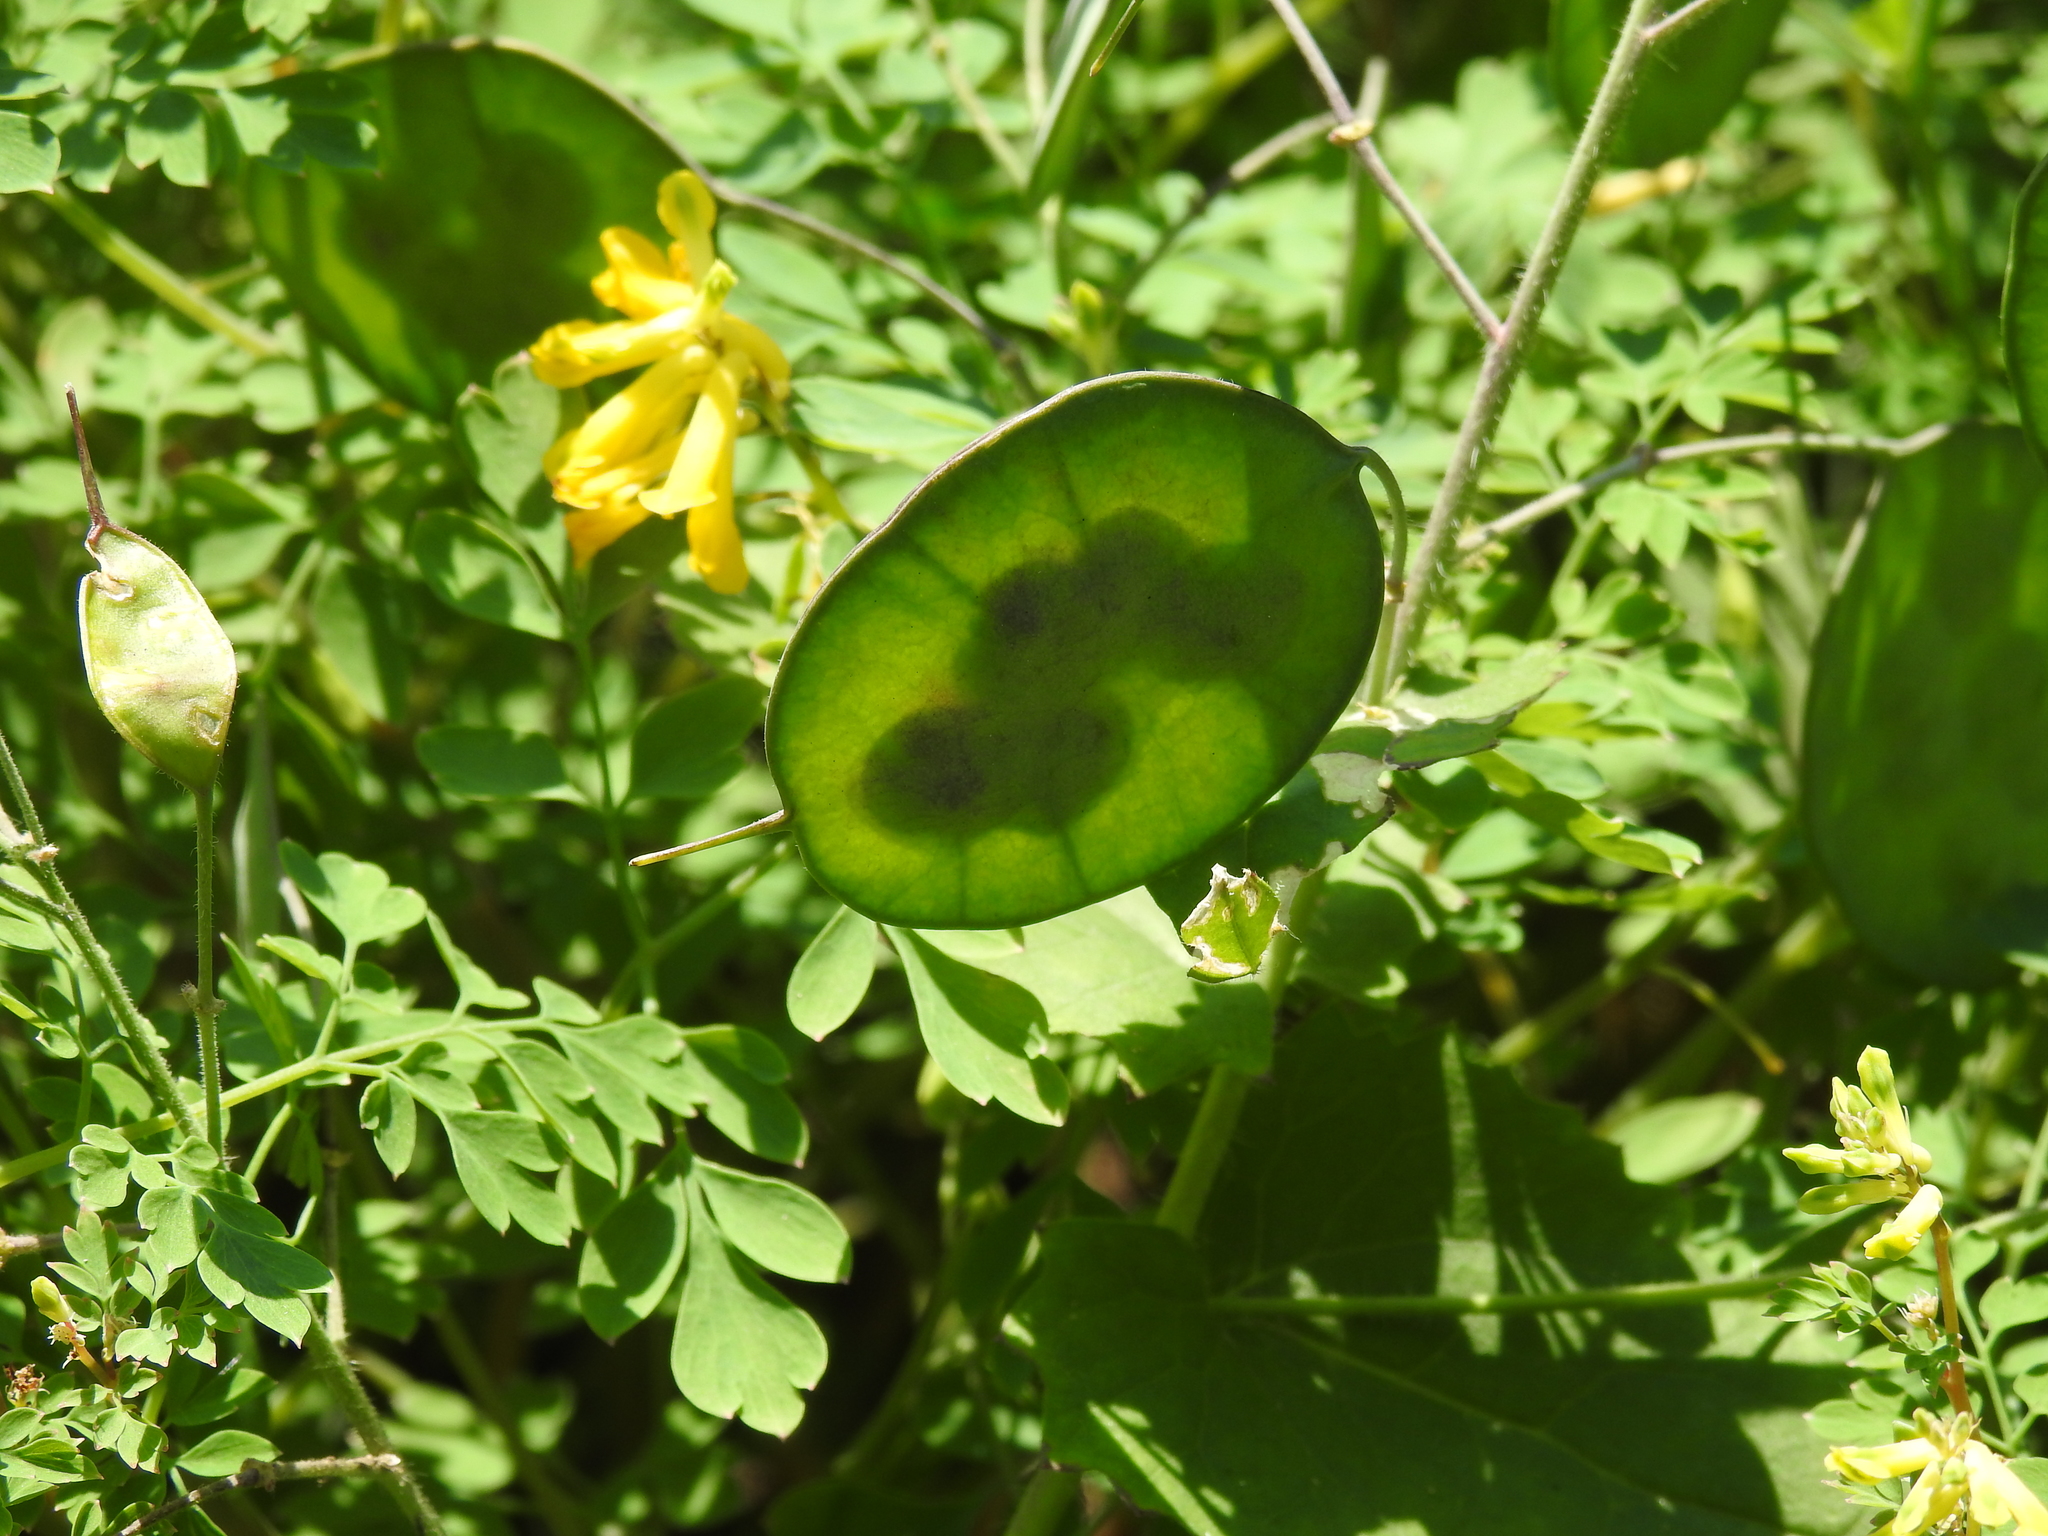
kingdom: Plantae
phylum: Tracheophyta
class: Magnoliopsida
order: Brassicales
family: Brassicaceae
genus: Lunaria
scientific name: Lunaria annua
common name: Honesty
